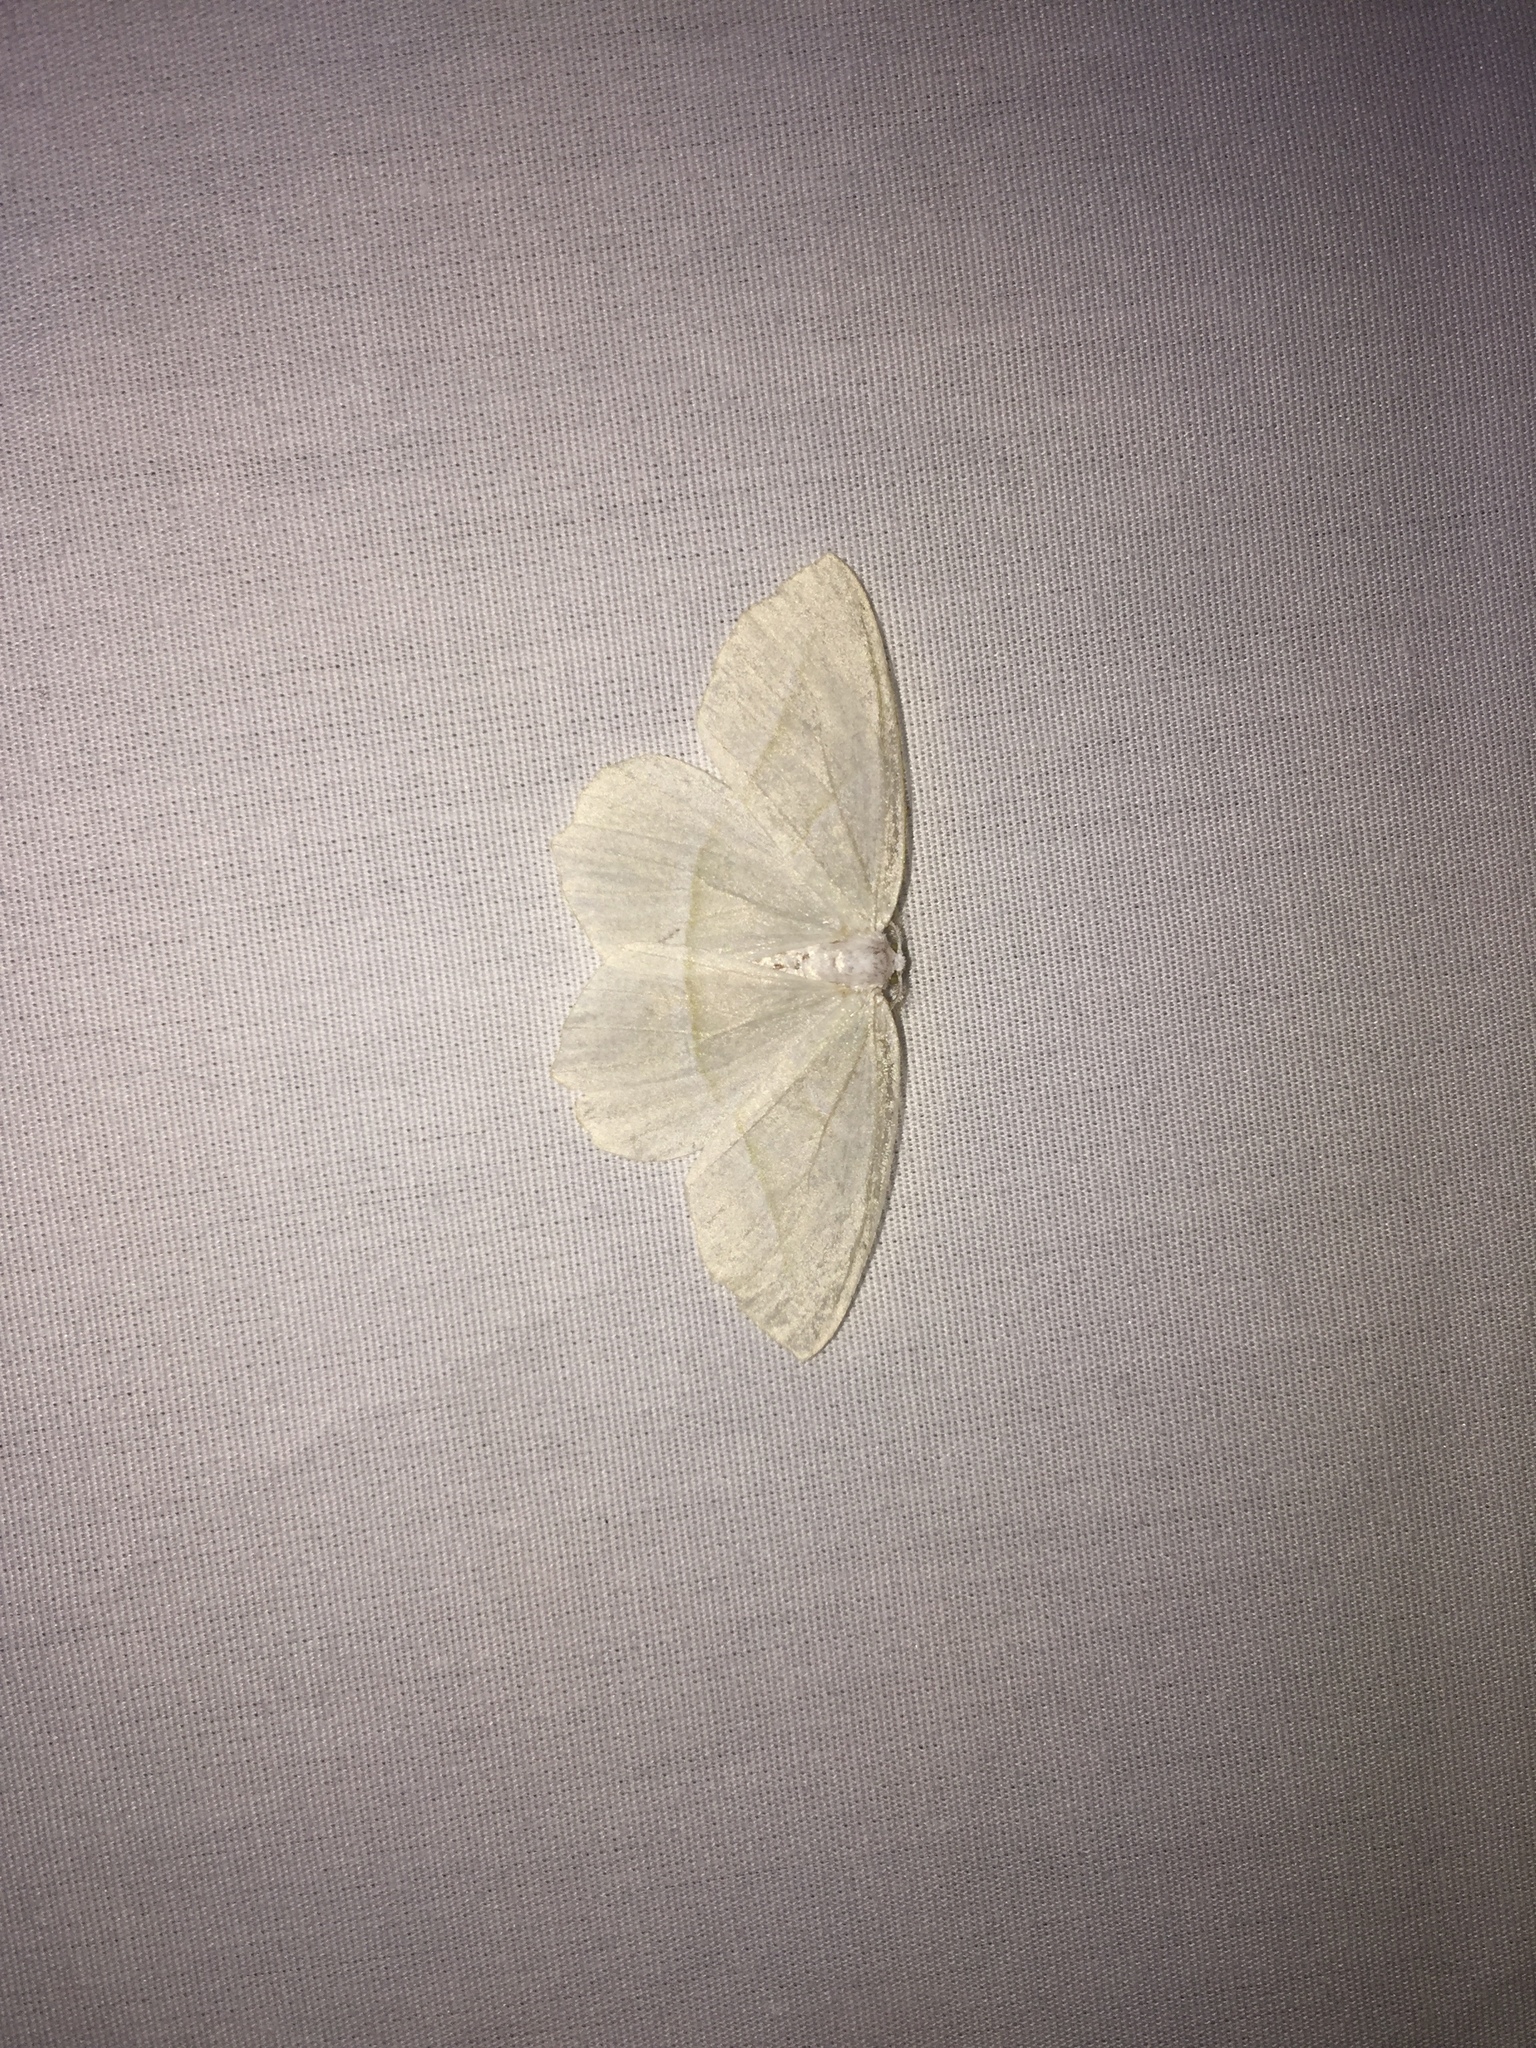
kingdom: Animalia
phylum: Arthropoda
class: Insecta
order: Lepidoptera
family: Geometridae
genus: Campaea
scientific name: Campaea perlata
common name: Fringed looper
